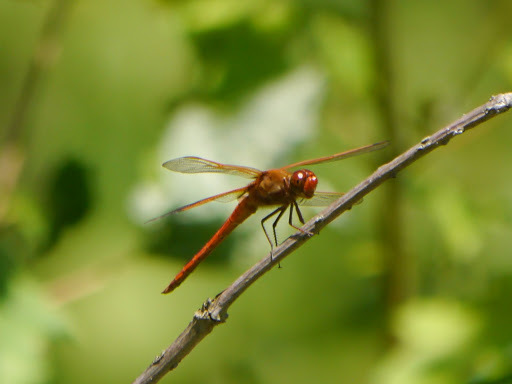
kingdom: Animalia
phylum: Arthropoda
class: Insecta
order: Odonata
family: Libellulidae
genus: Libellula
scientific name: Libellula needhami
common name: Needham's skimmer
